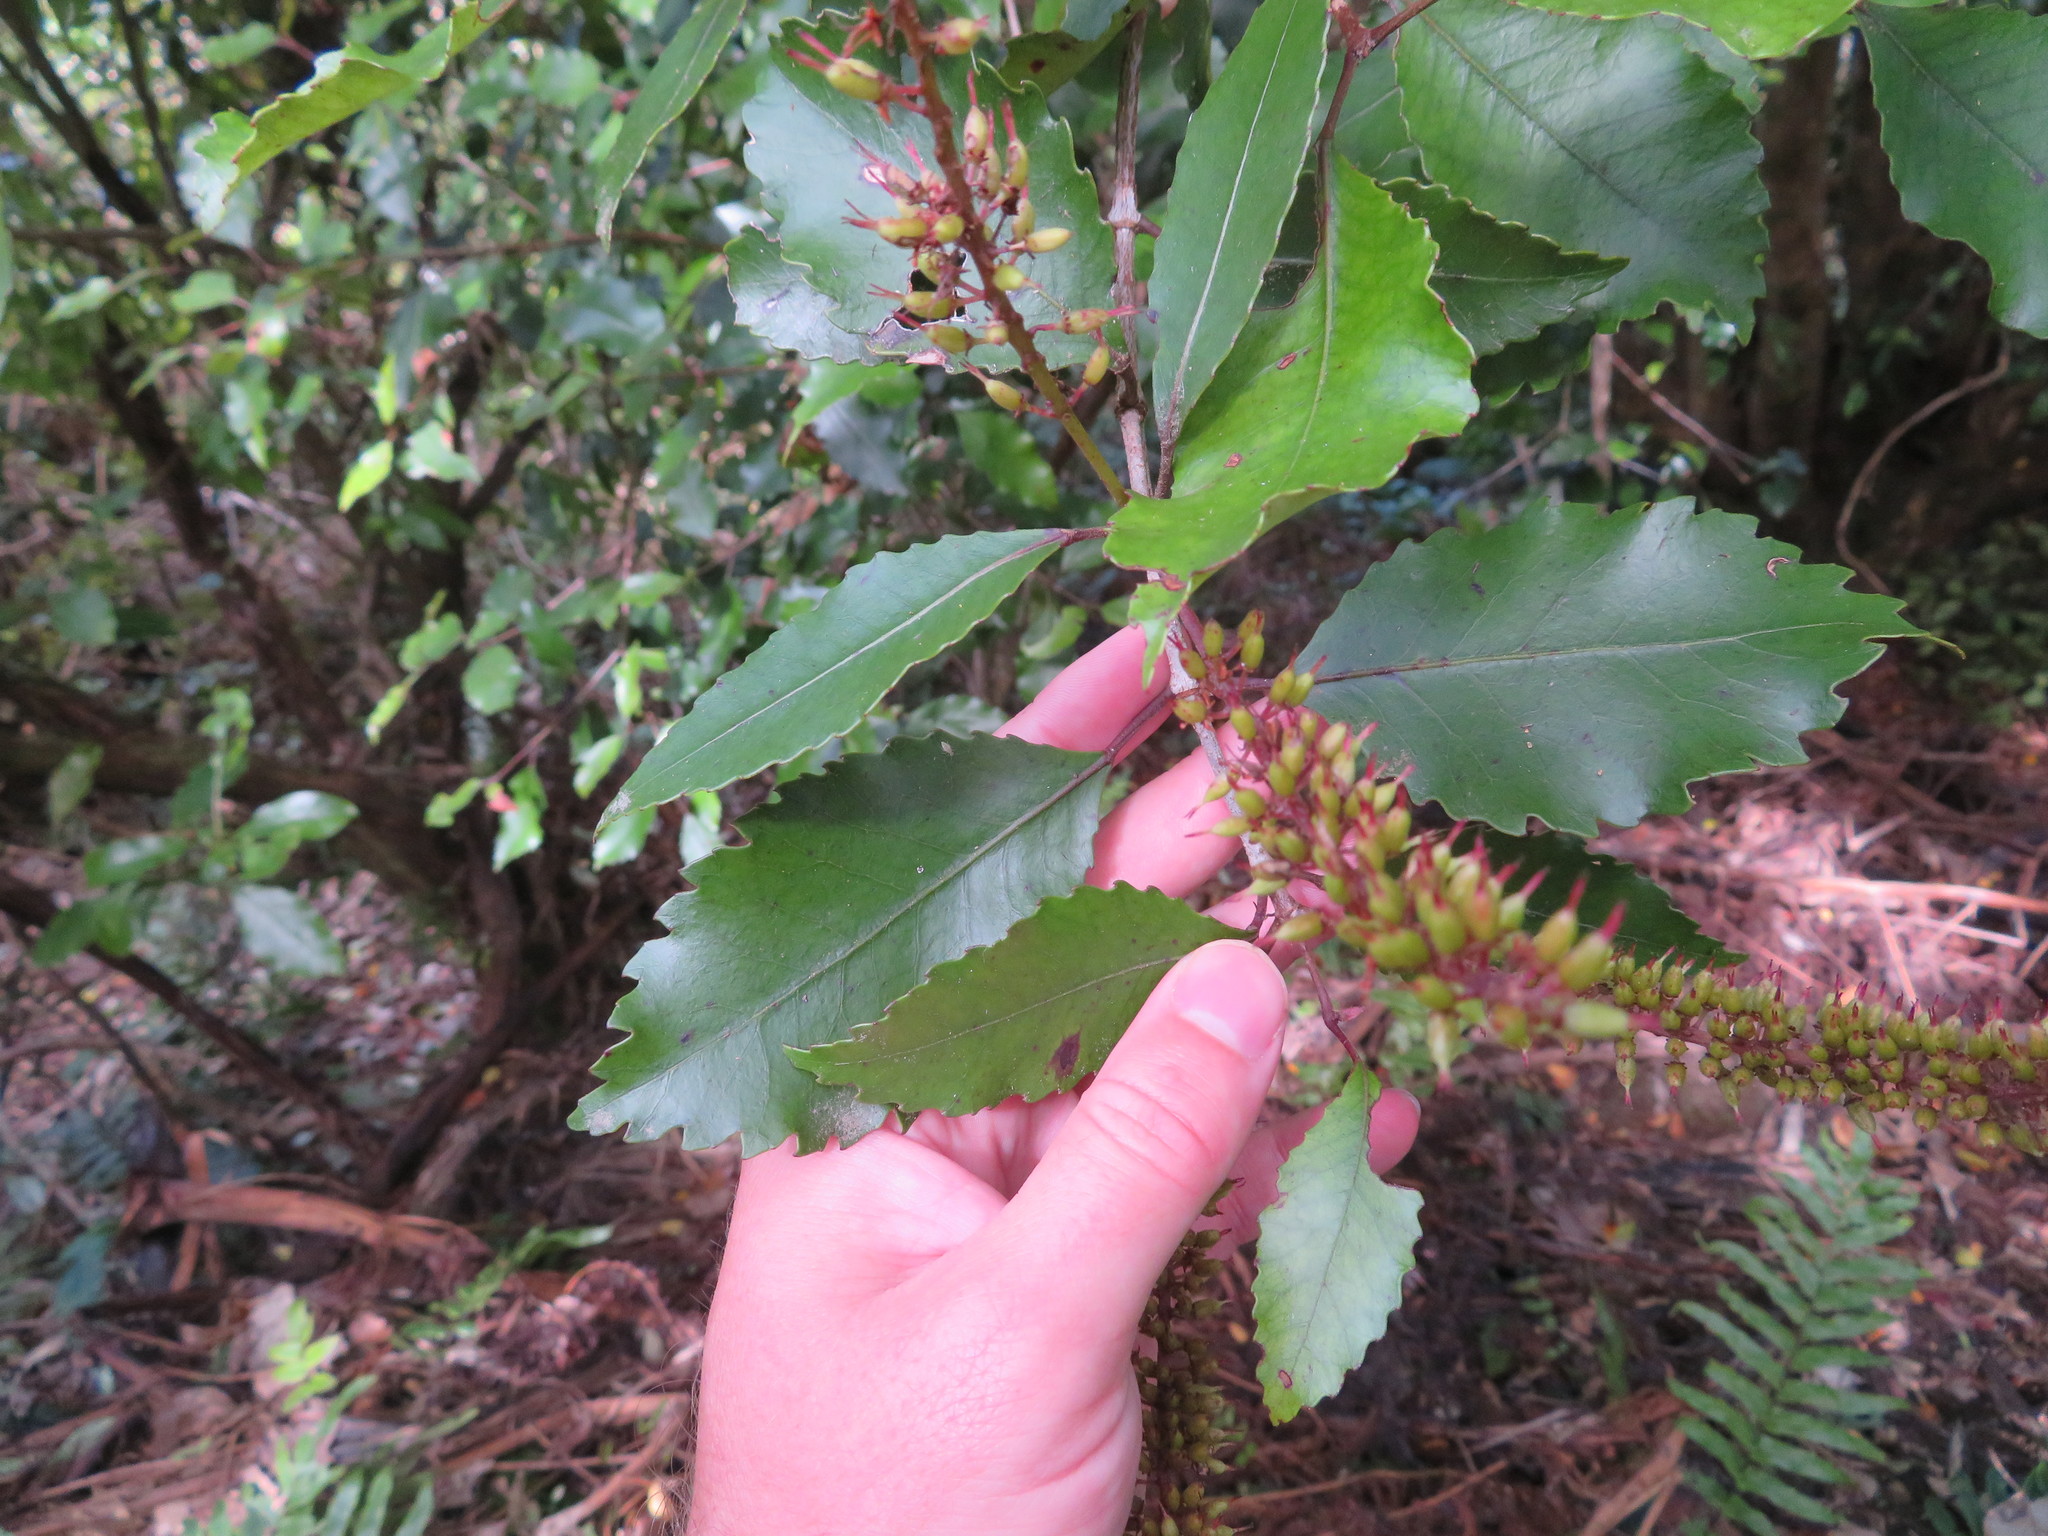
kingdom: Plantae
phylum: Tracheophyta
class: Magnoliopsida
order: Oxalidales
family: Cunoniaceae
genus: Pterophylla
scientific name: Pterophylla racemosa
